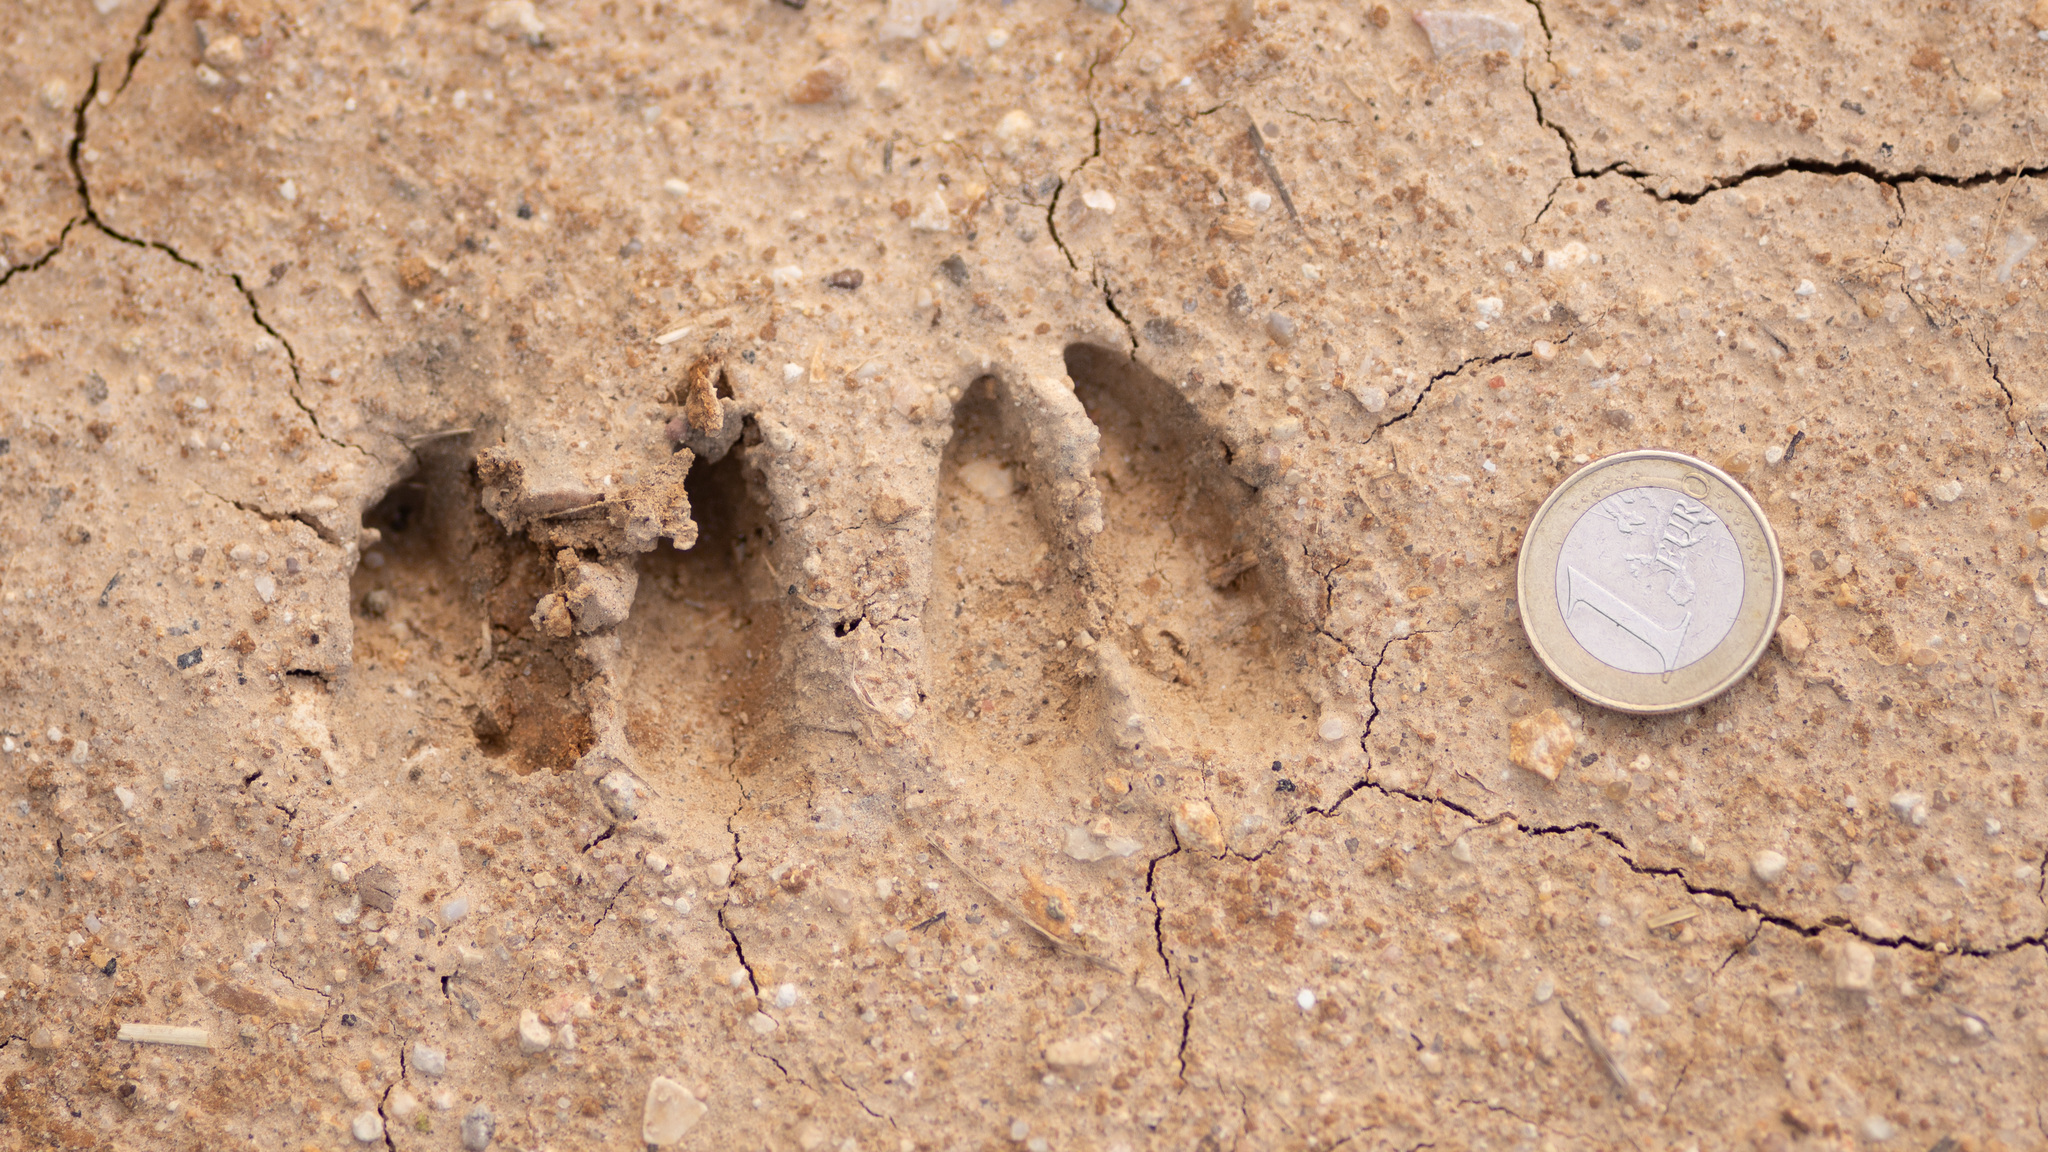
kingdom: Animalia
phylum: Chordata
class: Mammalia
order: Artiodactyla
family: Cervidae
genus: Capreolus
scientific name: Capreolus capreolus
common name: Western roe deer
